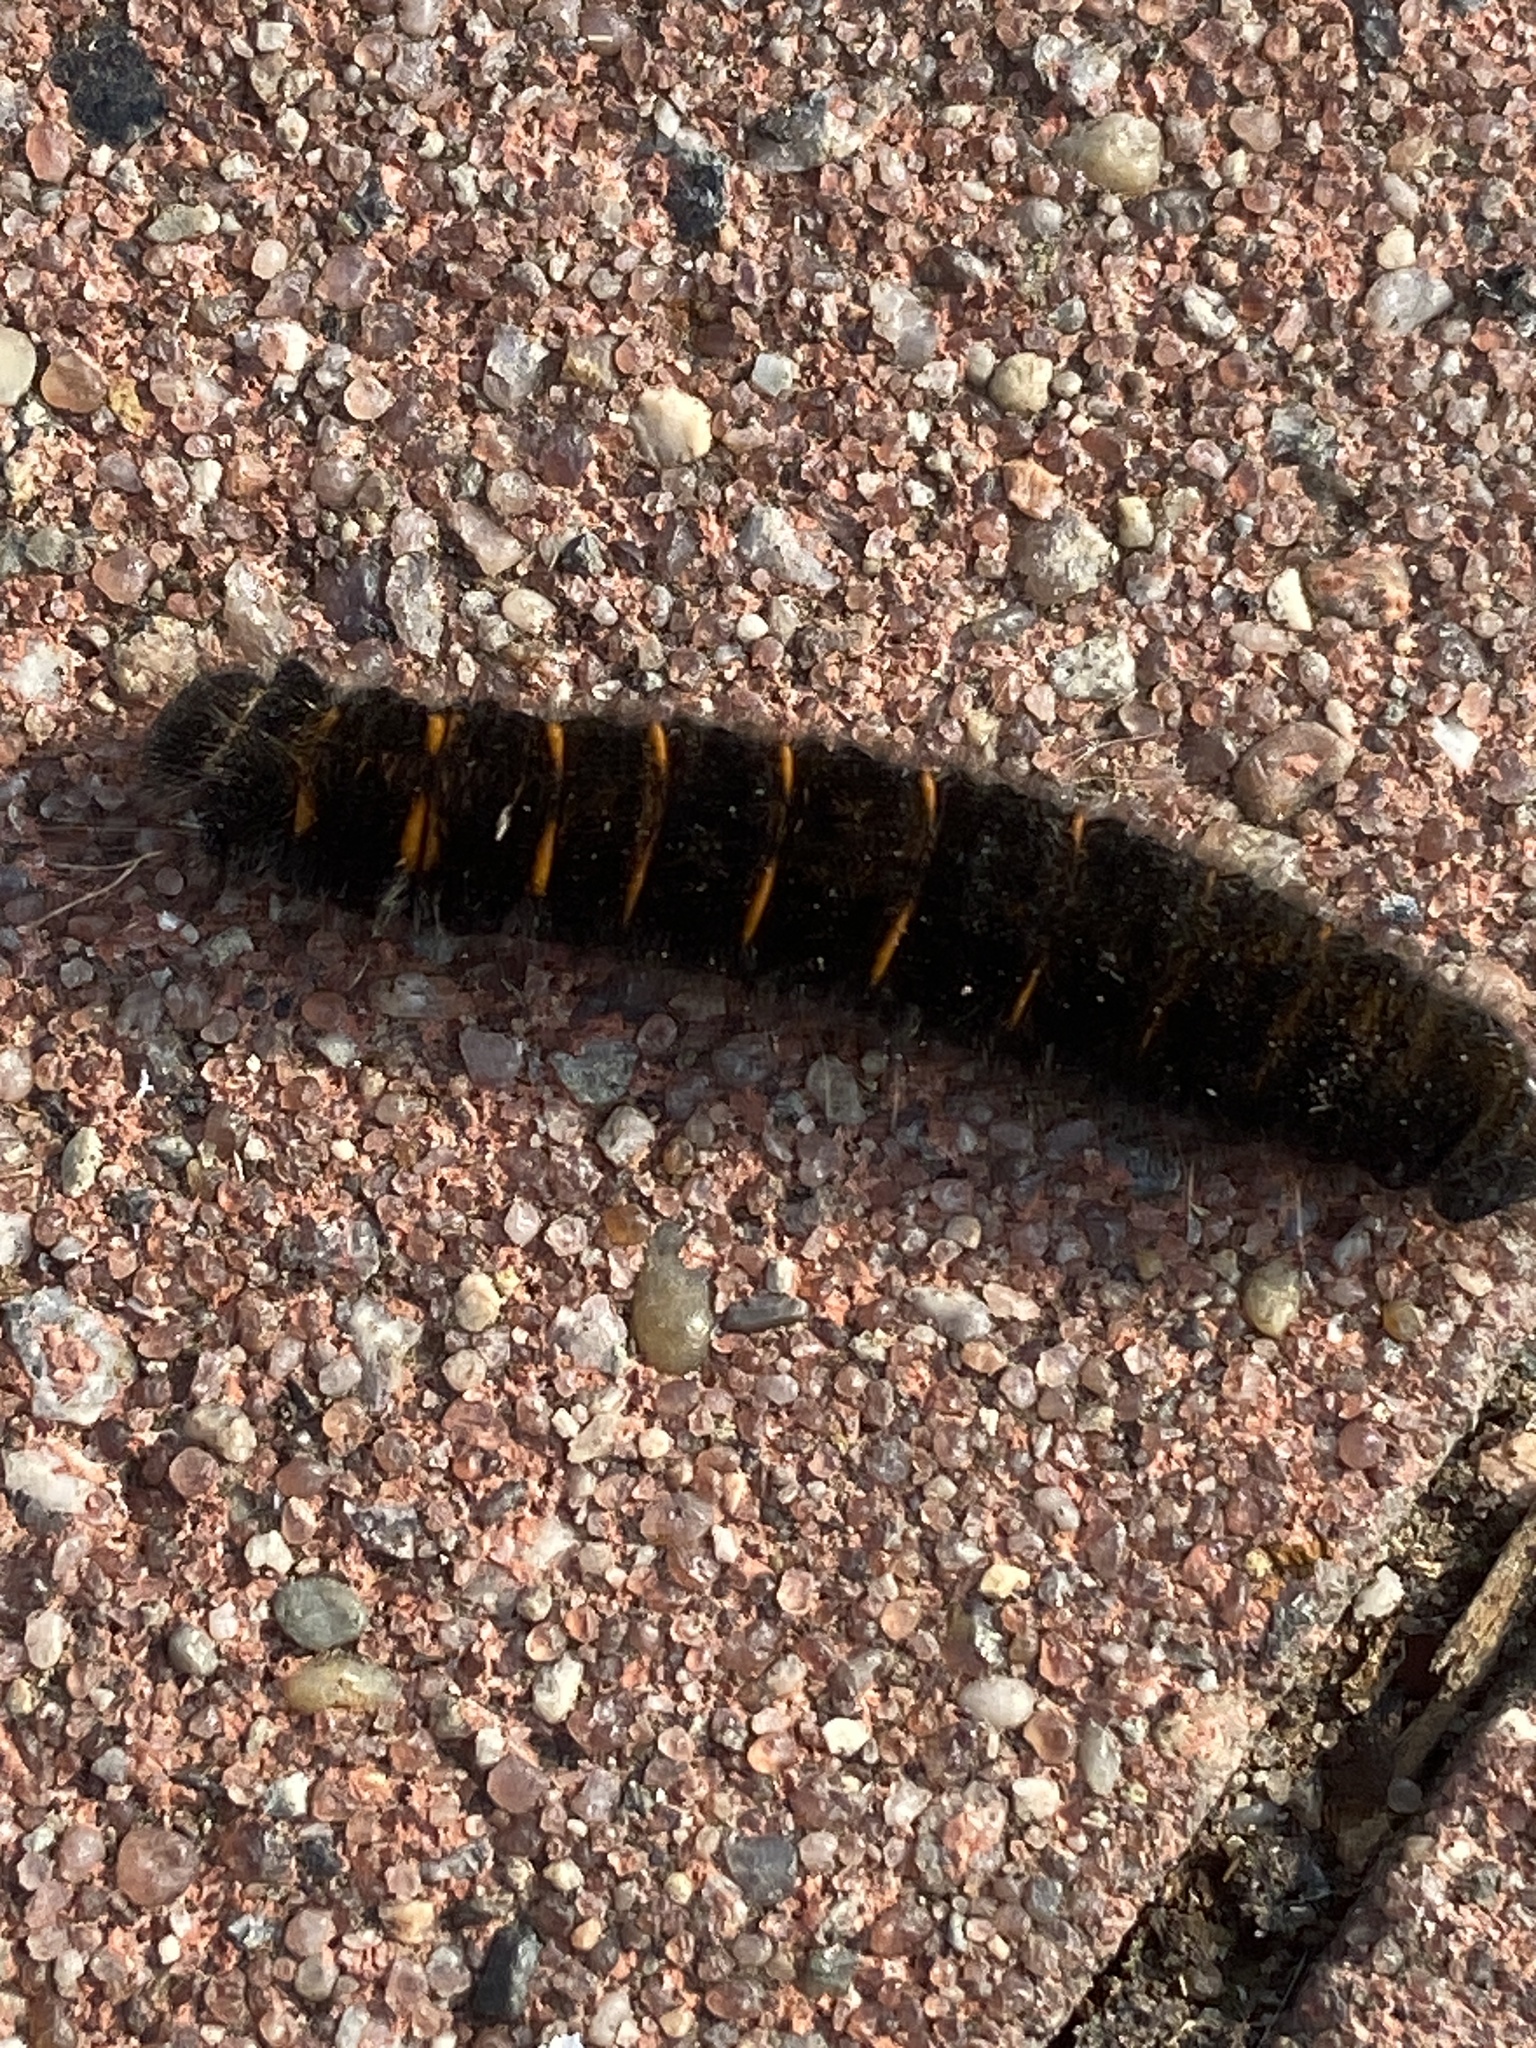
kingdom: Animalia
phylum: Arthropoda
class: Insecta
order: Lepidoptera
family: Lasiocampidae
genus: Macrothylacia
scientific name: Macrothylacia rubi
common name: Fox moth
